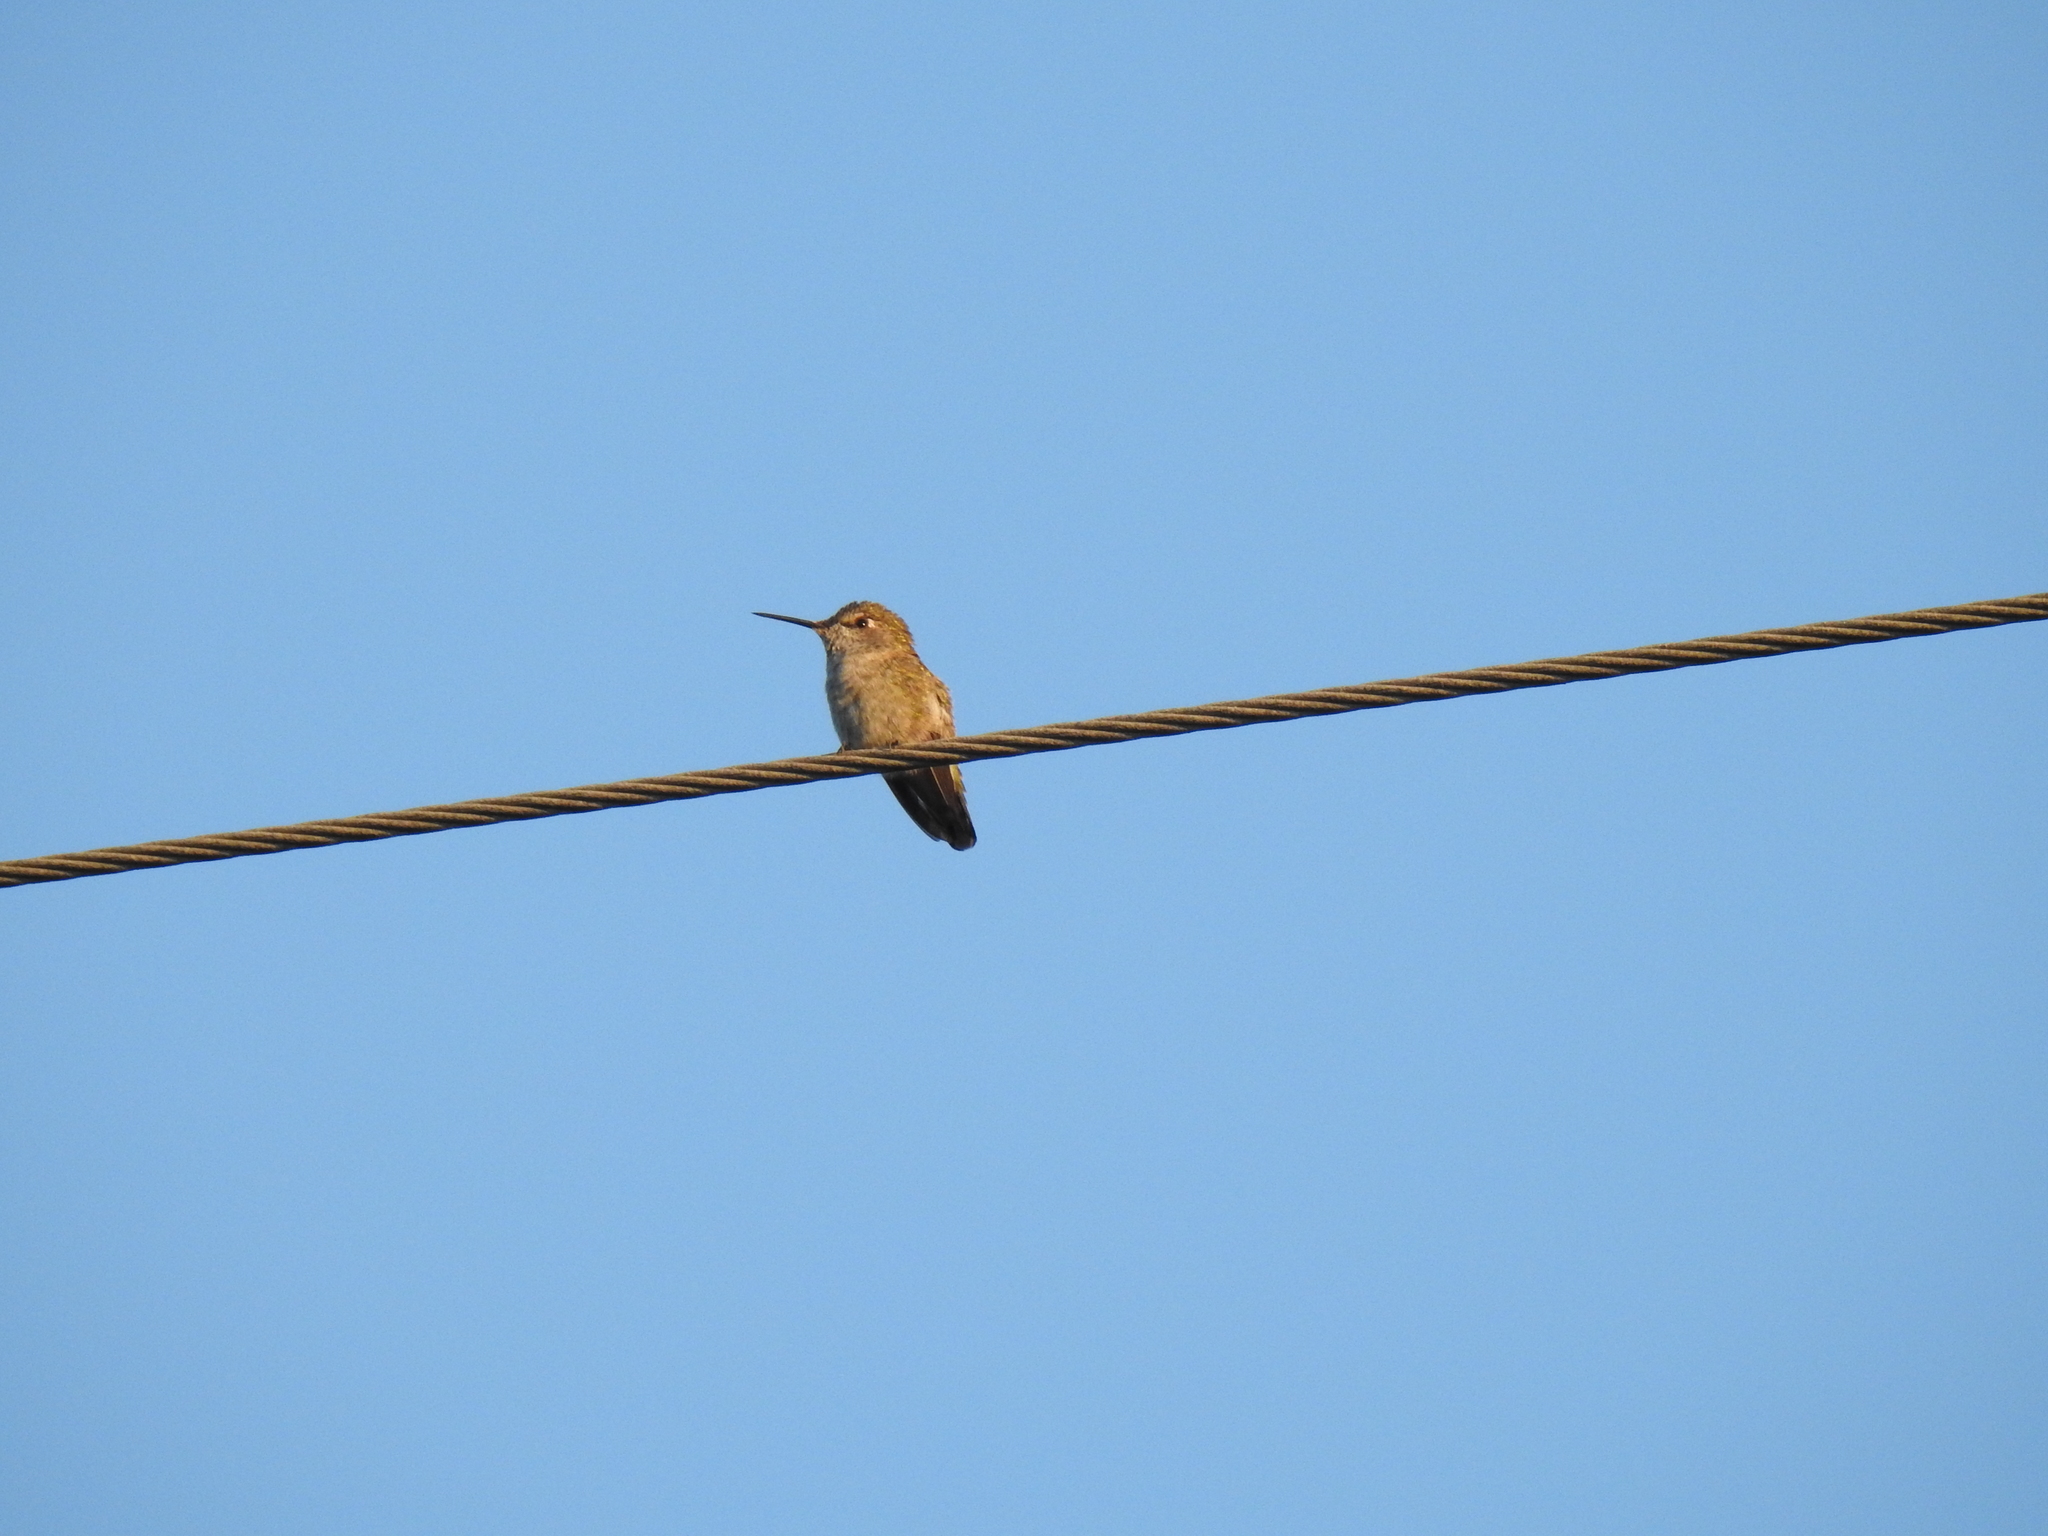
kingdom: Animalia
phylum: Chordata
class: Aves
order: Apodiformes
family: Trochilidae
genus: Calypte
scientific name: Calypte anna
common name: Anna's hummingbird
